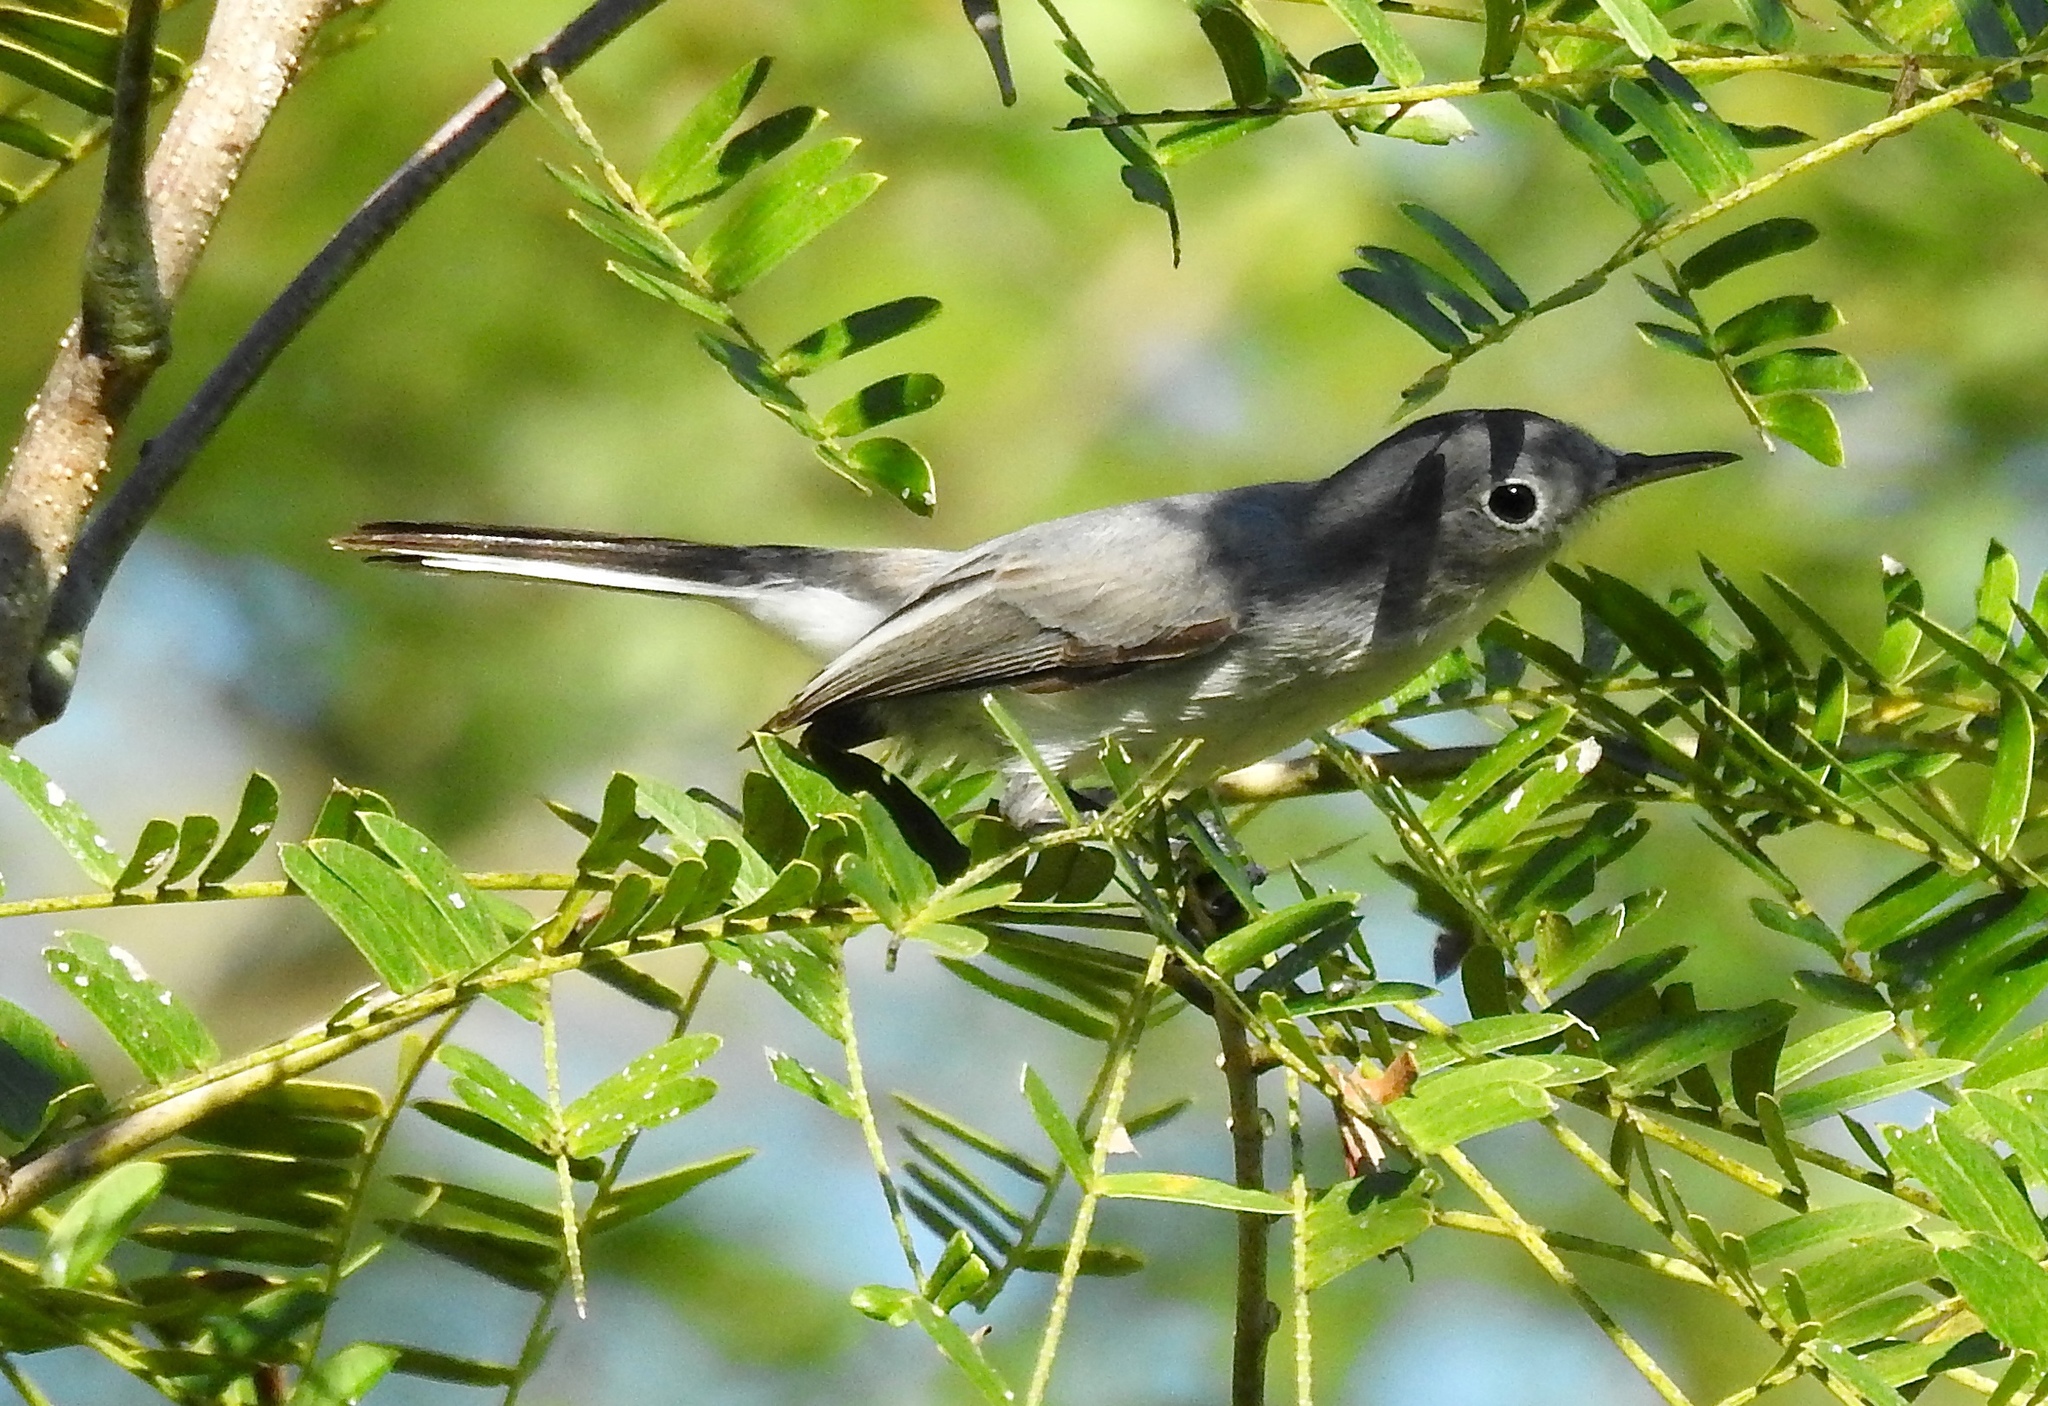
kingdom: Animalia
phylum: Chordata
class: Aves
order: Passeriformes
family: Polioptilidae
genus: Polioptila
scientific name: Polioptila caerulea
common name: Blue-gray gnatcatcher
